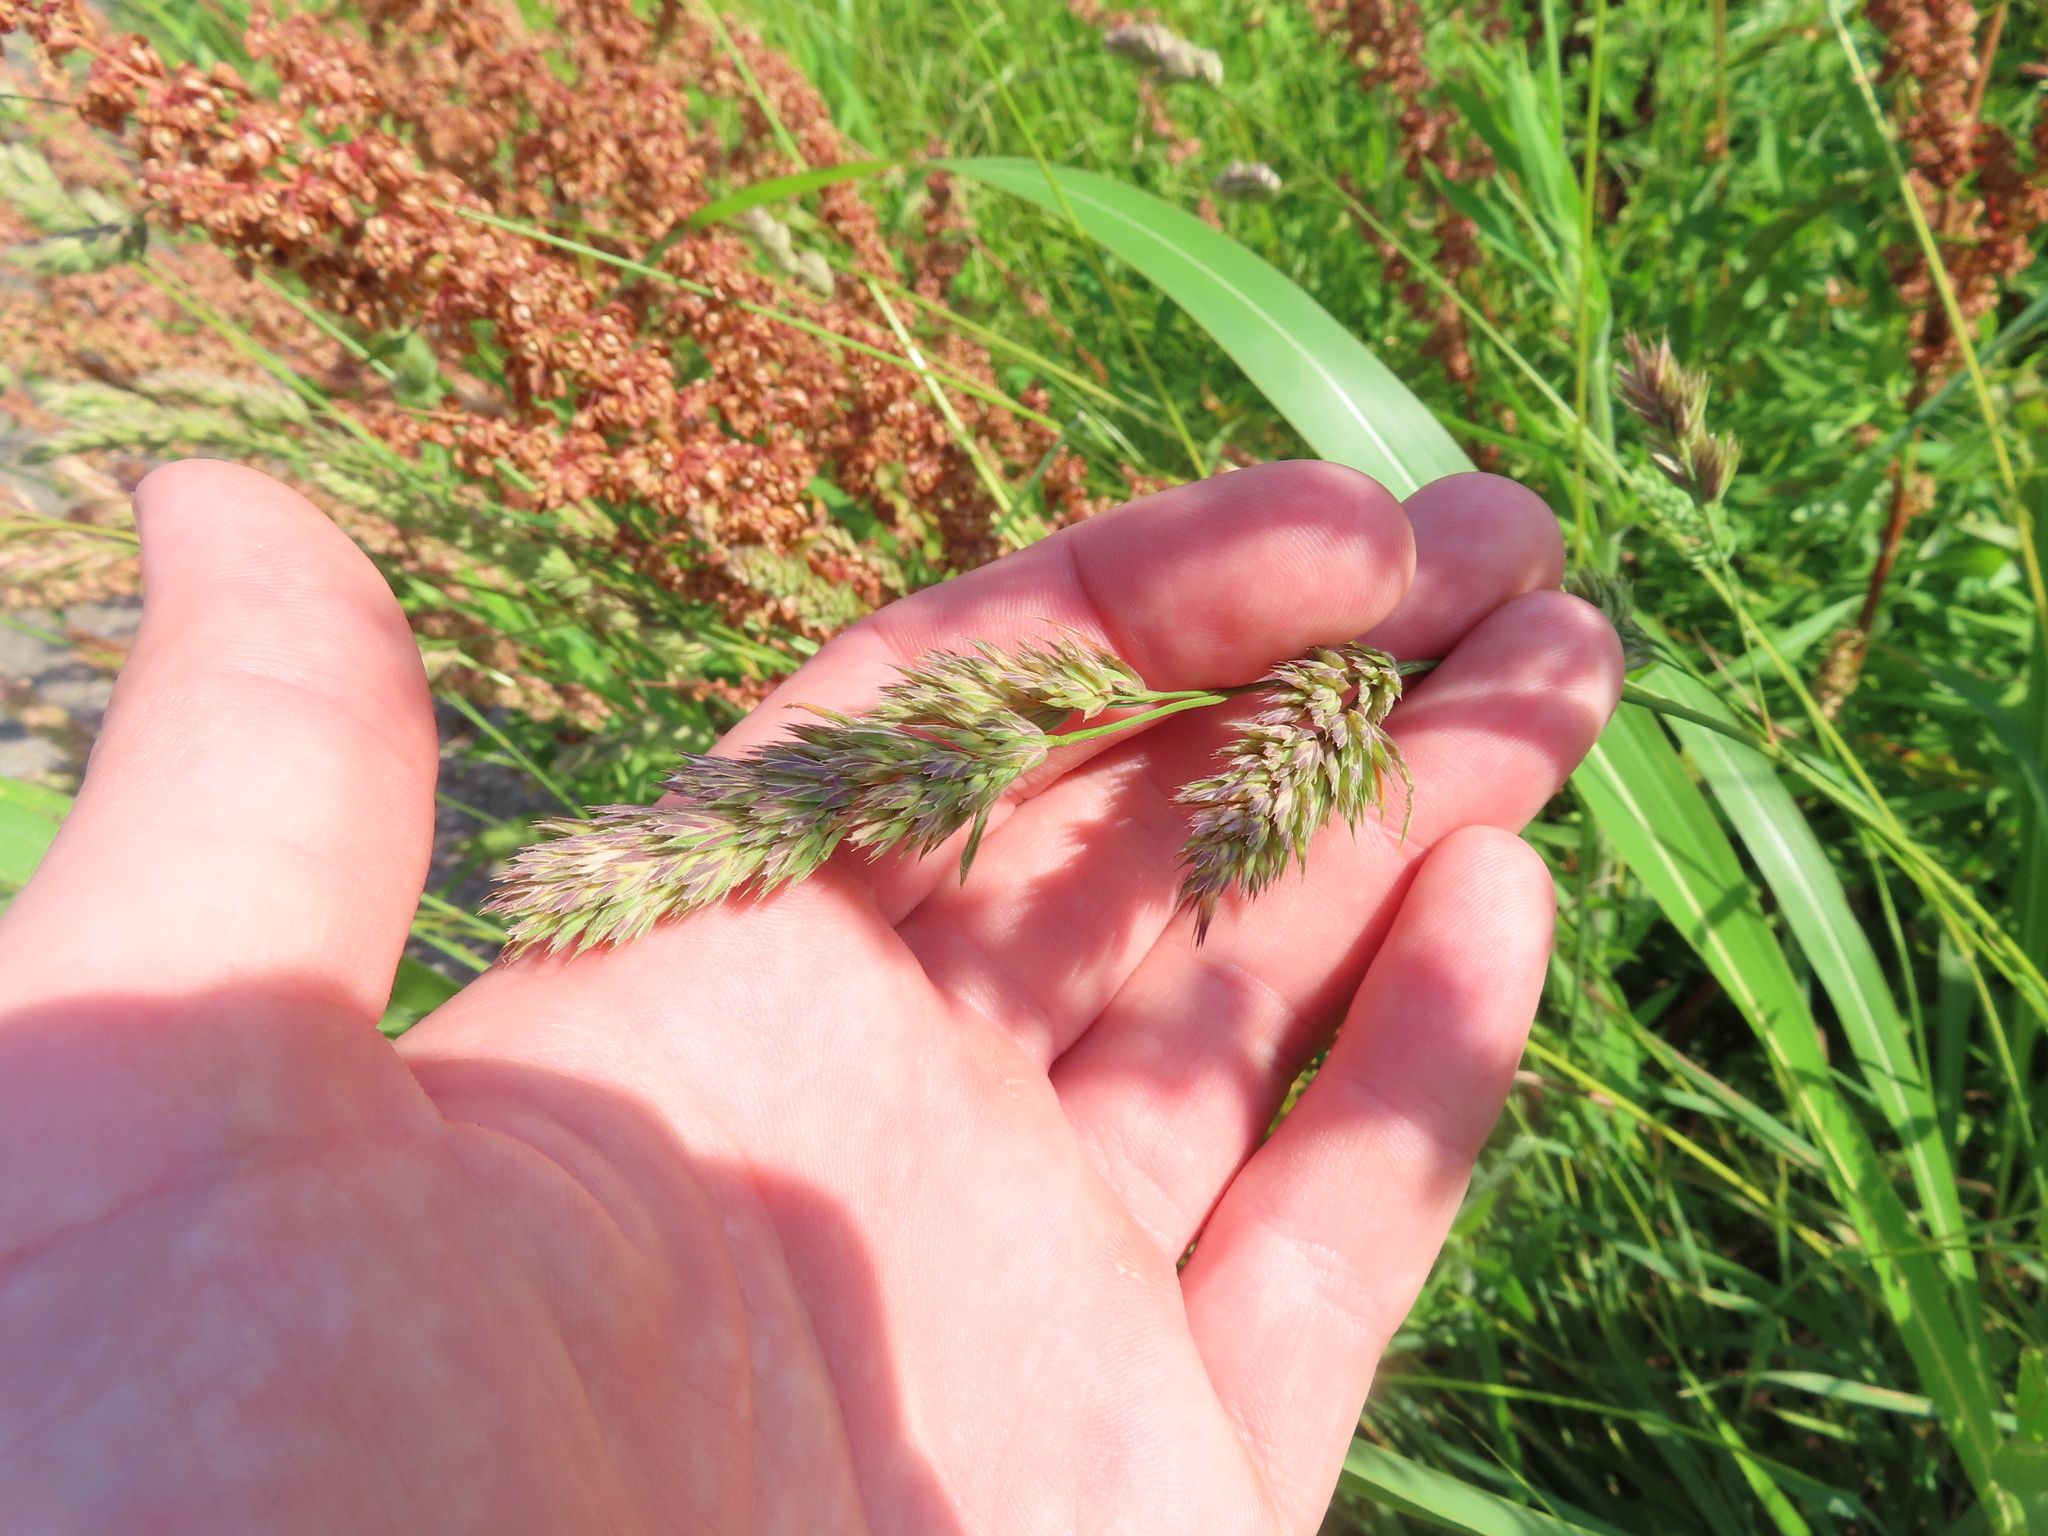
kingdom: Plantae
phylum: Tracheophyta
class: Liliopsida
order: Poales
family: Poaceae
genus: Dactylis
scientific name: Dactylis glomerata
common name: Orchardgrass
